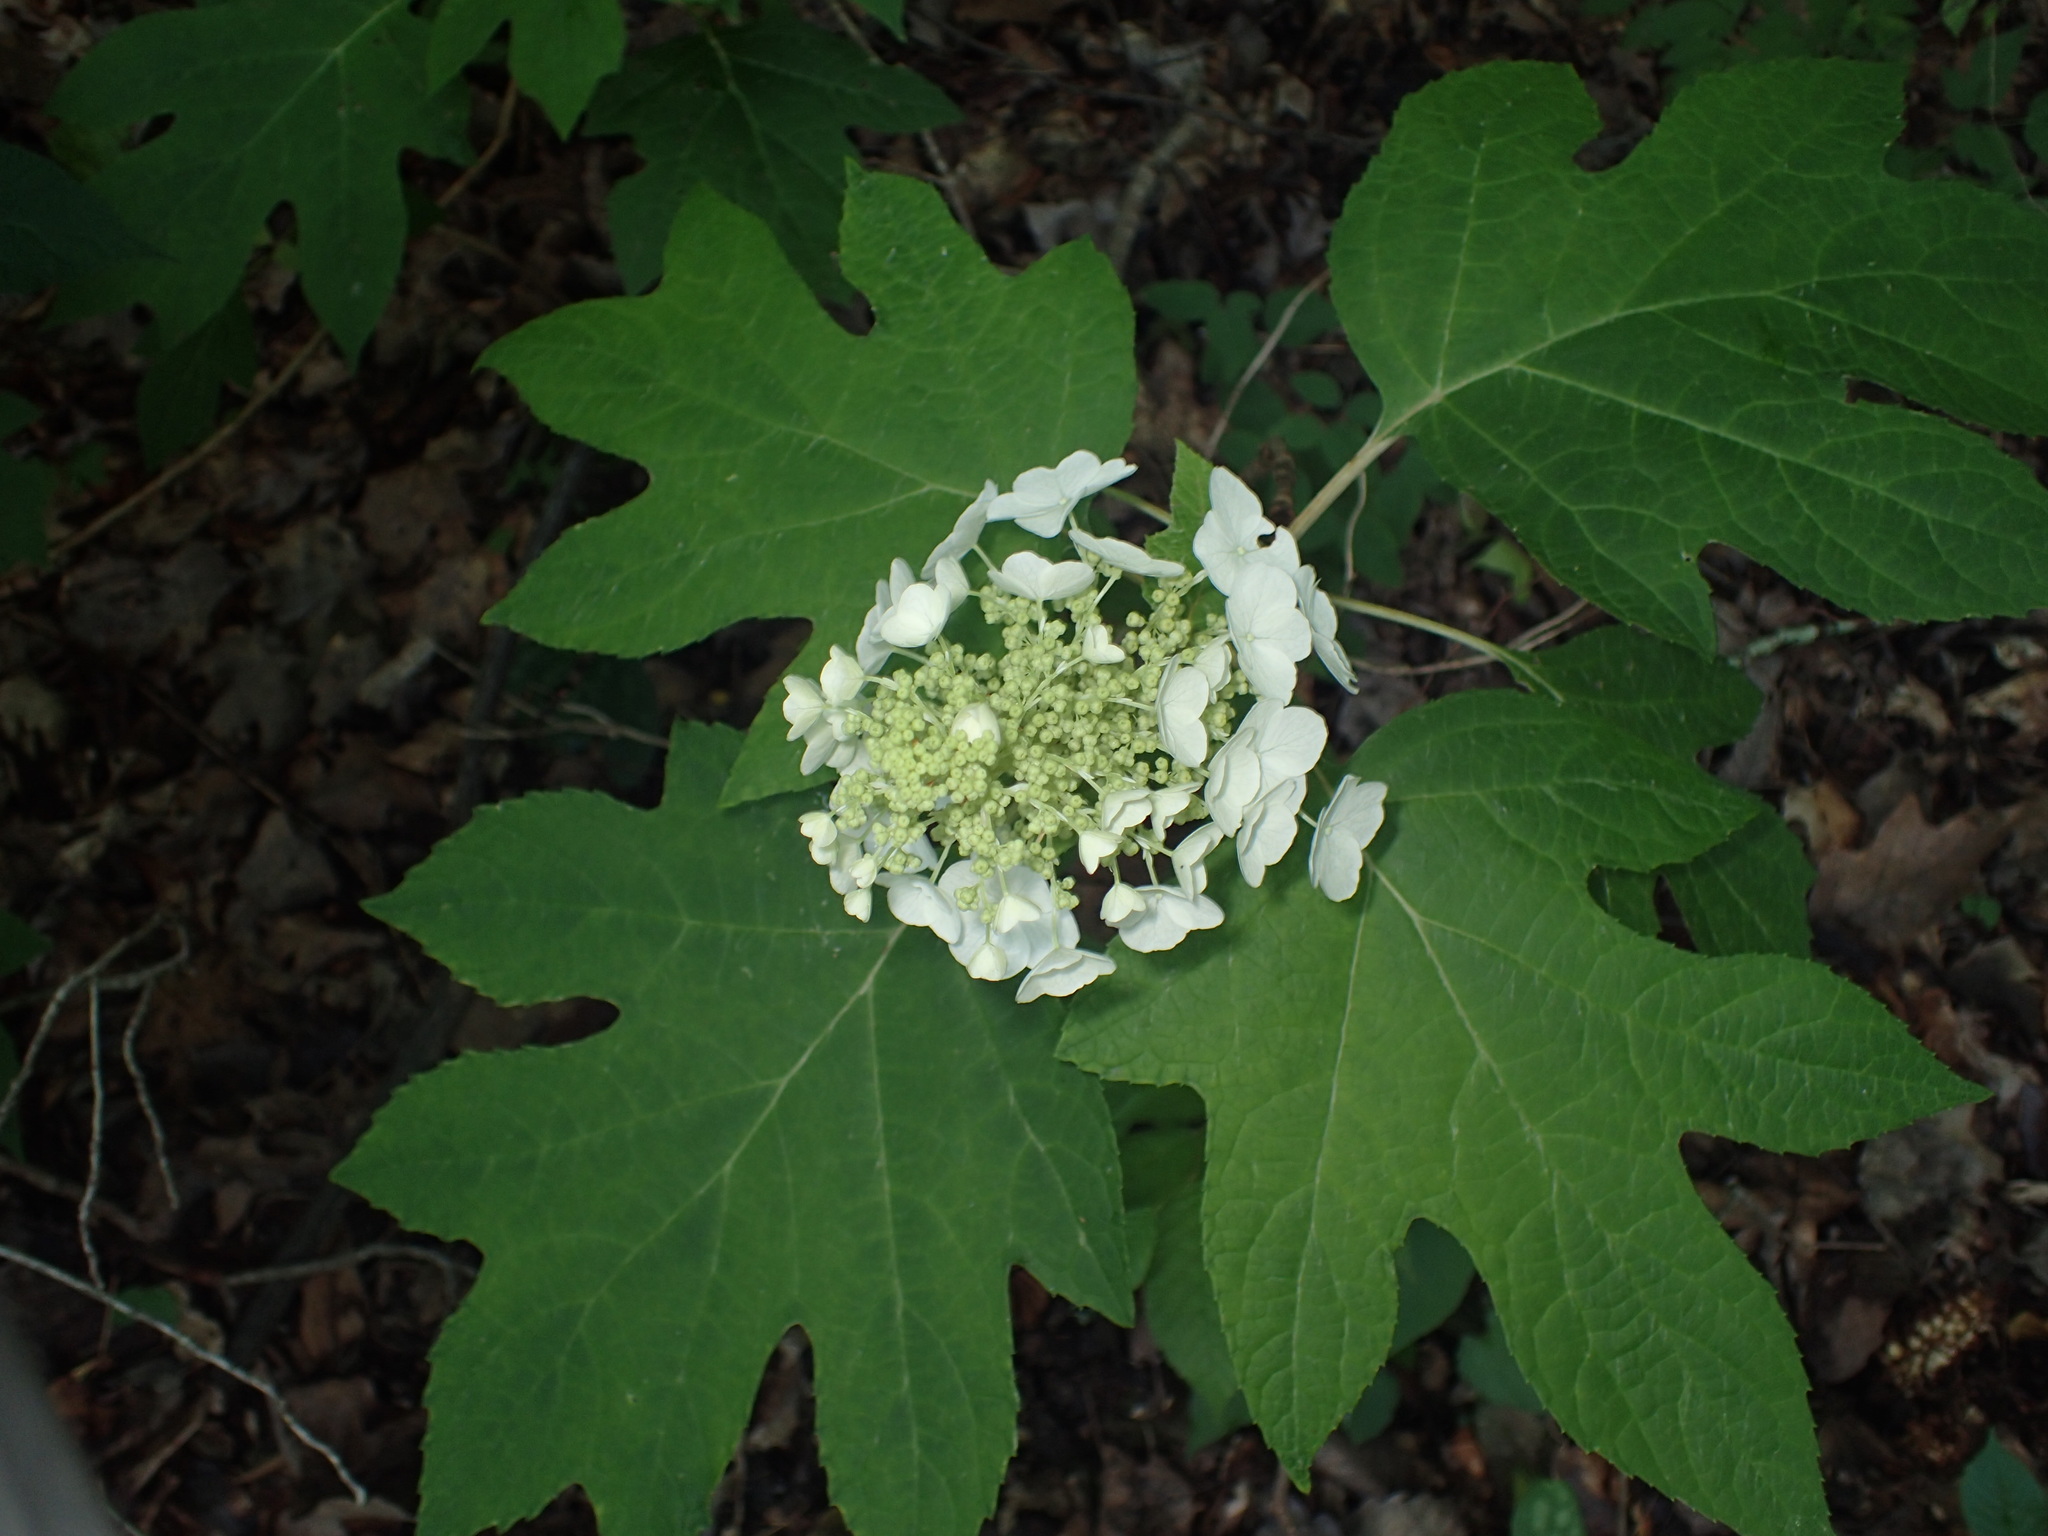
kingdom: Plantae
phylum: Tracheophyta
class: Magnoliopsida
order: Cornales
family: Hydrangeaceae
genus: Hydrangea
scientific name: Hydrangea quercifolia
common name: Oak-leaf hydrangea
